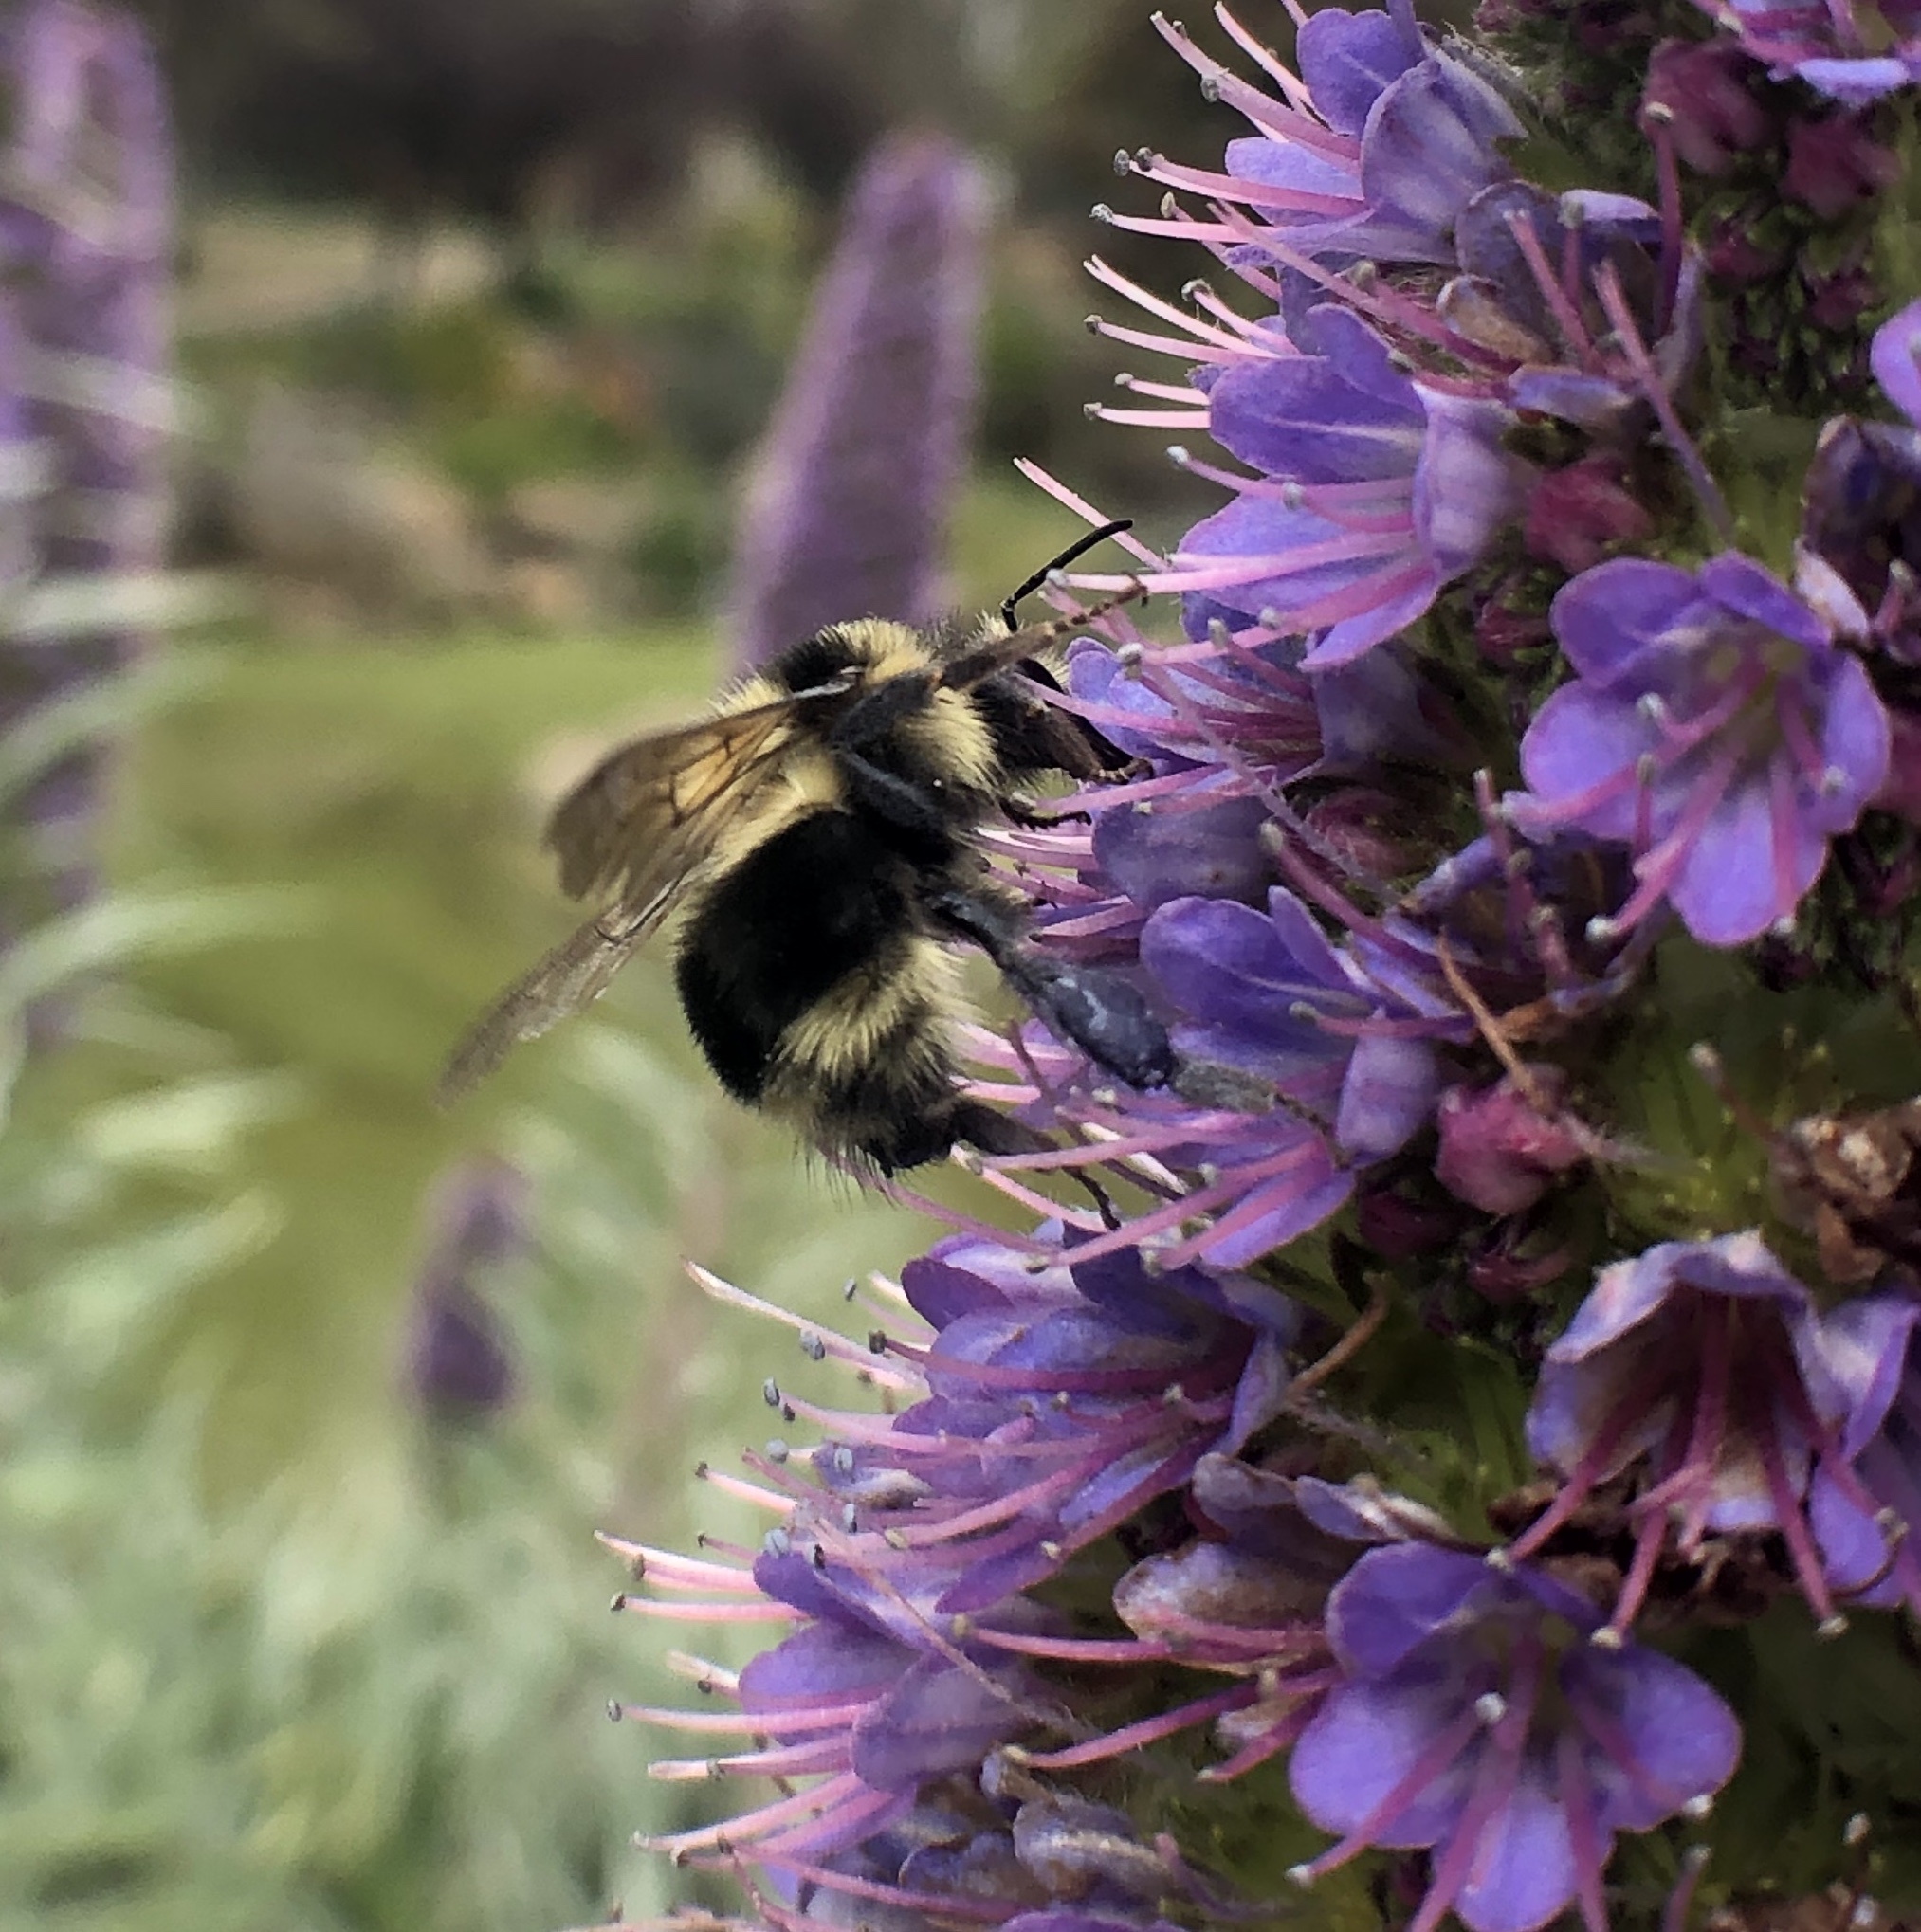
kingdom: Animalia
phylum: Arthropoda
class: Insecta
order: Hymenoptera
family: Apidae
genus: Bombus
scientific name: Bombus melanopygus
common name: Black tail bumble bee
